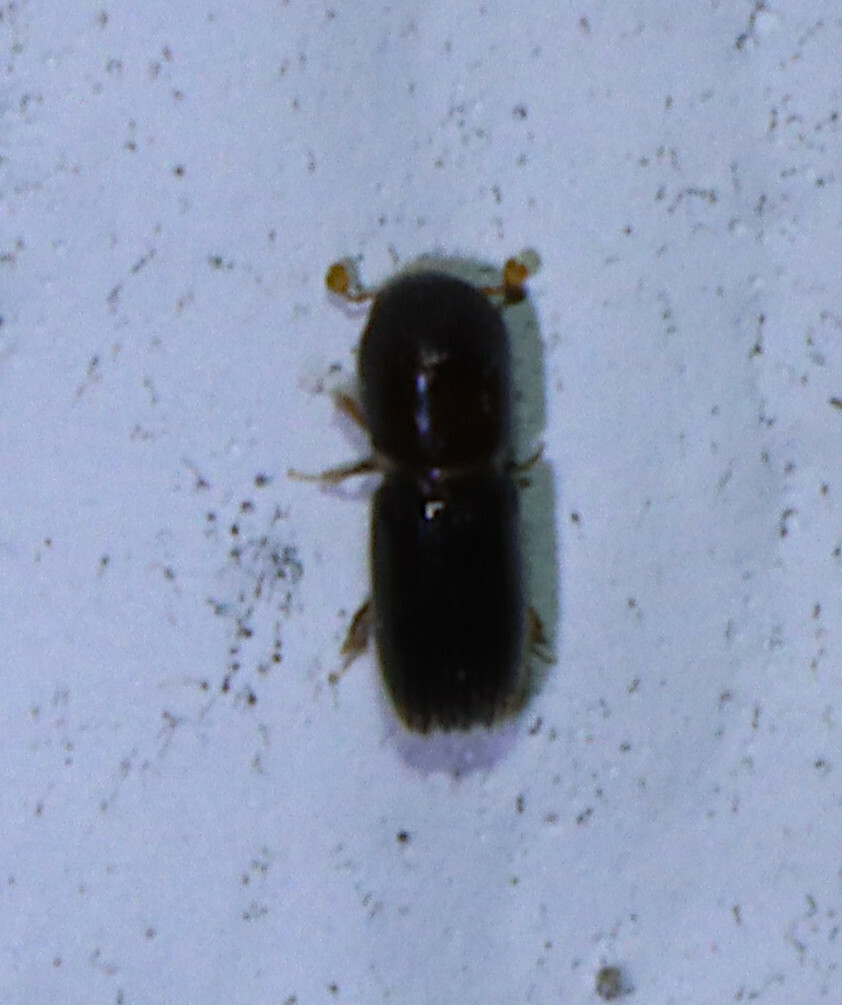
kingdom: Animalia
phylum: Arthropoda
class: Insecta
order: Coleoptera
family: Curculionidae
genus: Xyleborinus
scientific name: Xyleborinus saxesenii
